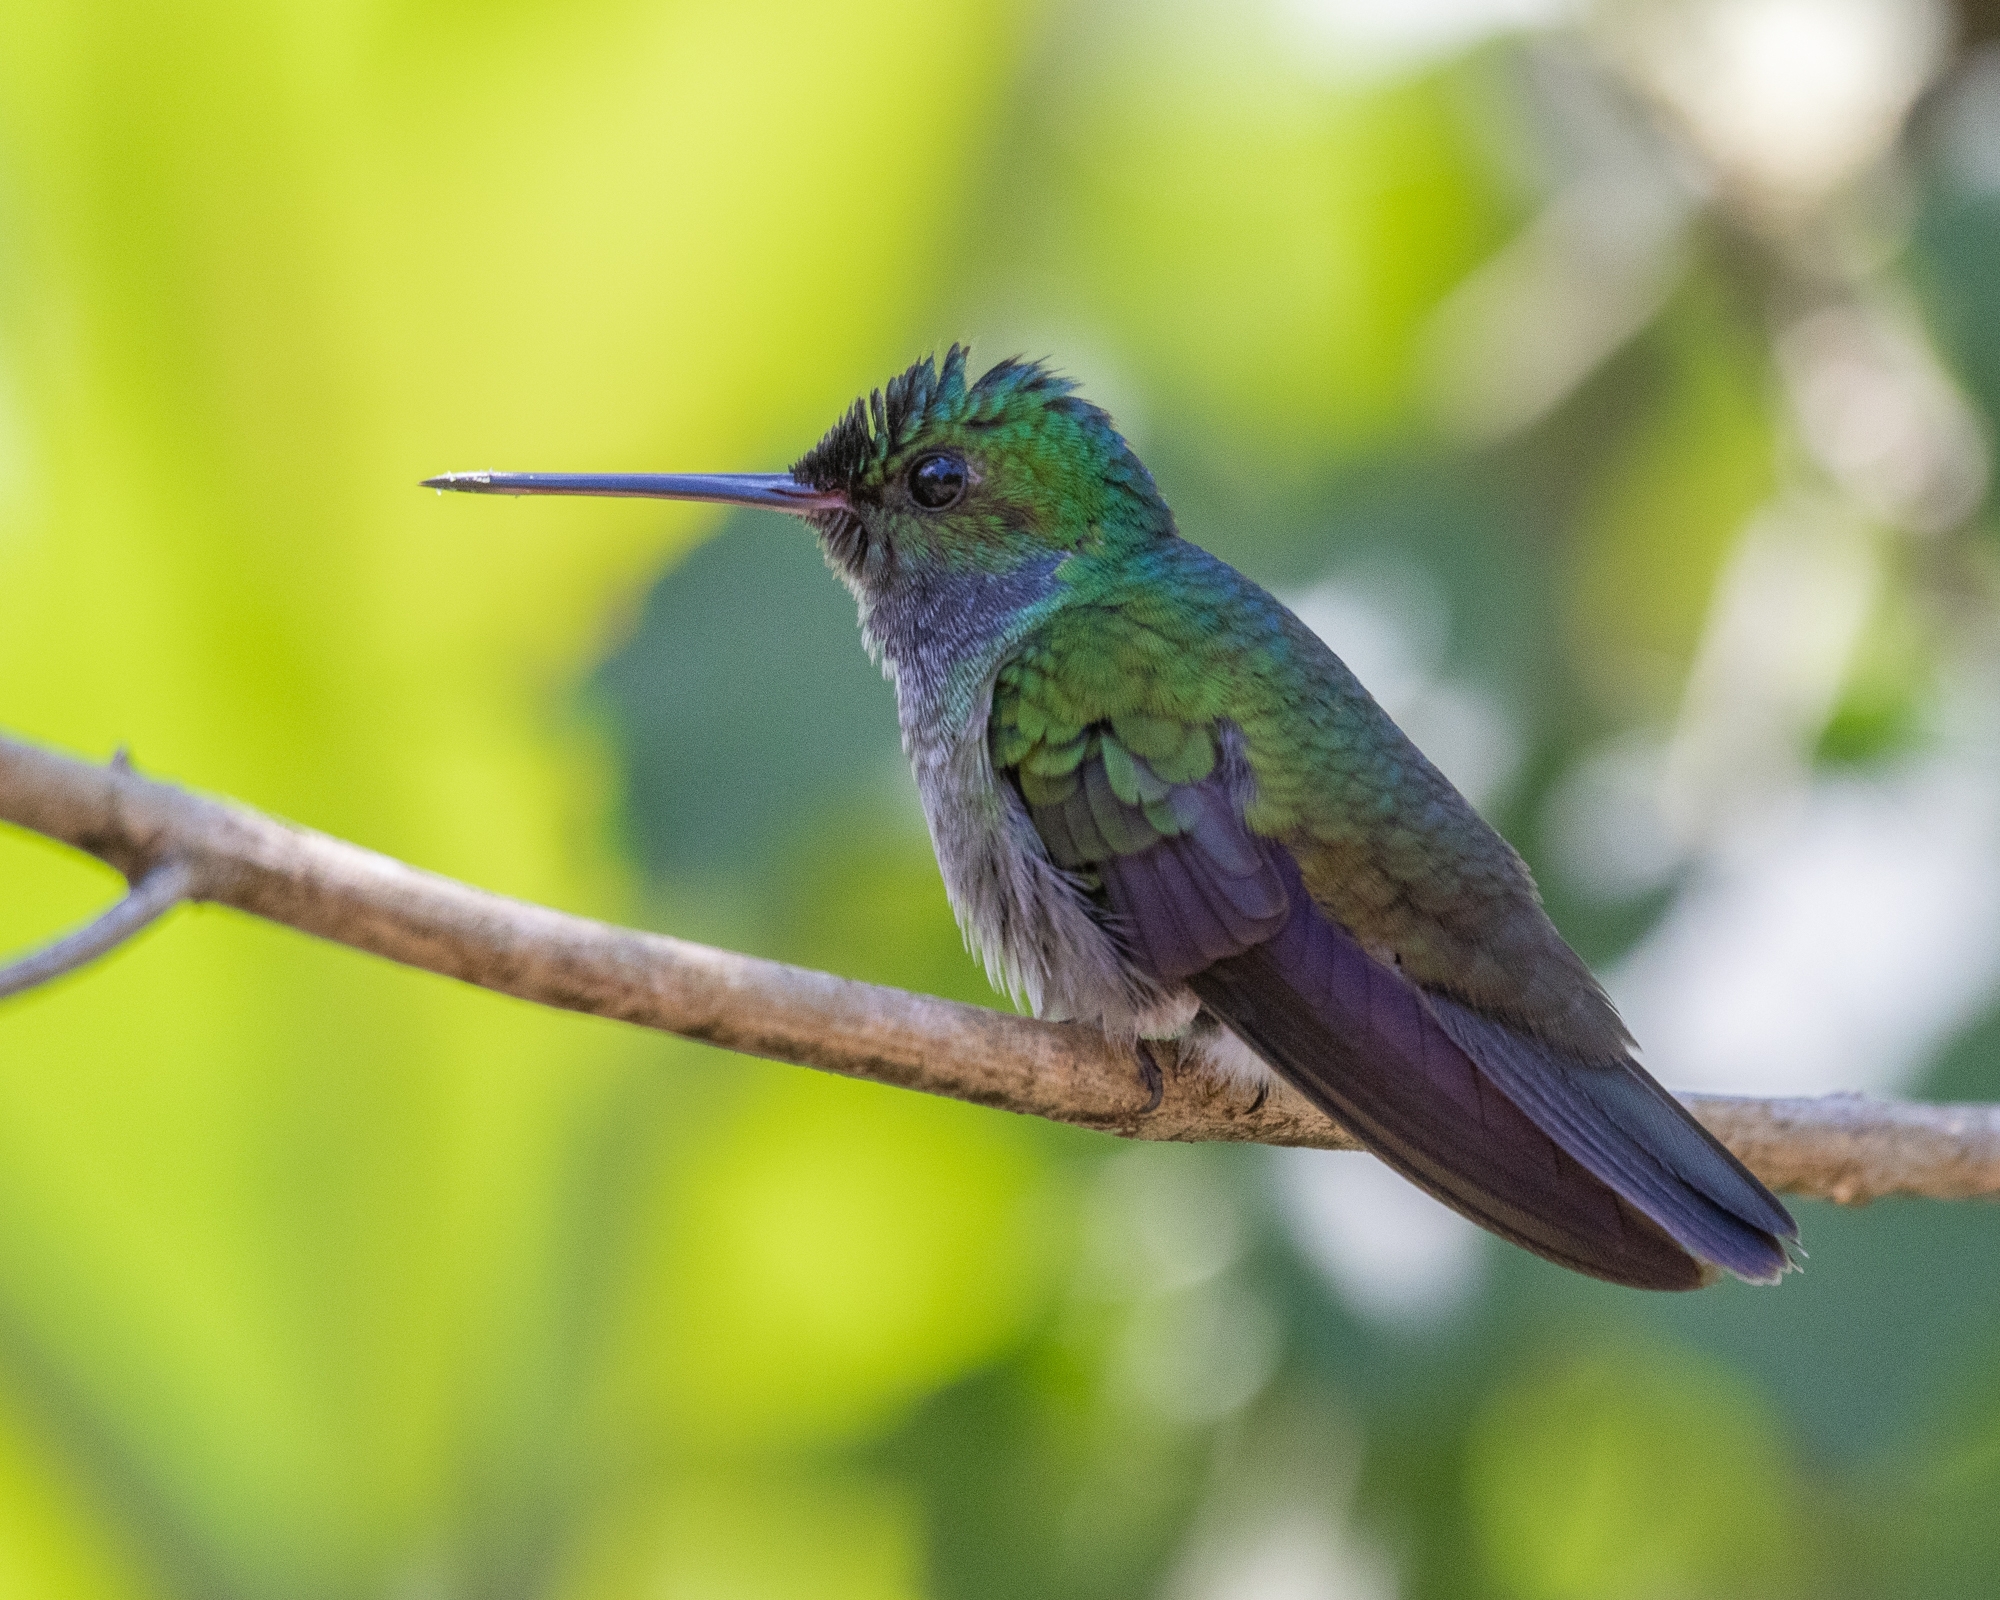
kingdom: Animalia
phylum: Chordata
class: Aves
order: Apodiformes
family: Trochilidae
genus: Polyerata
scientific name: Polyerata decora
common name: Charming hummingbird
